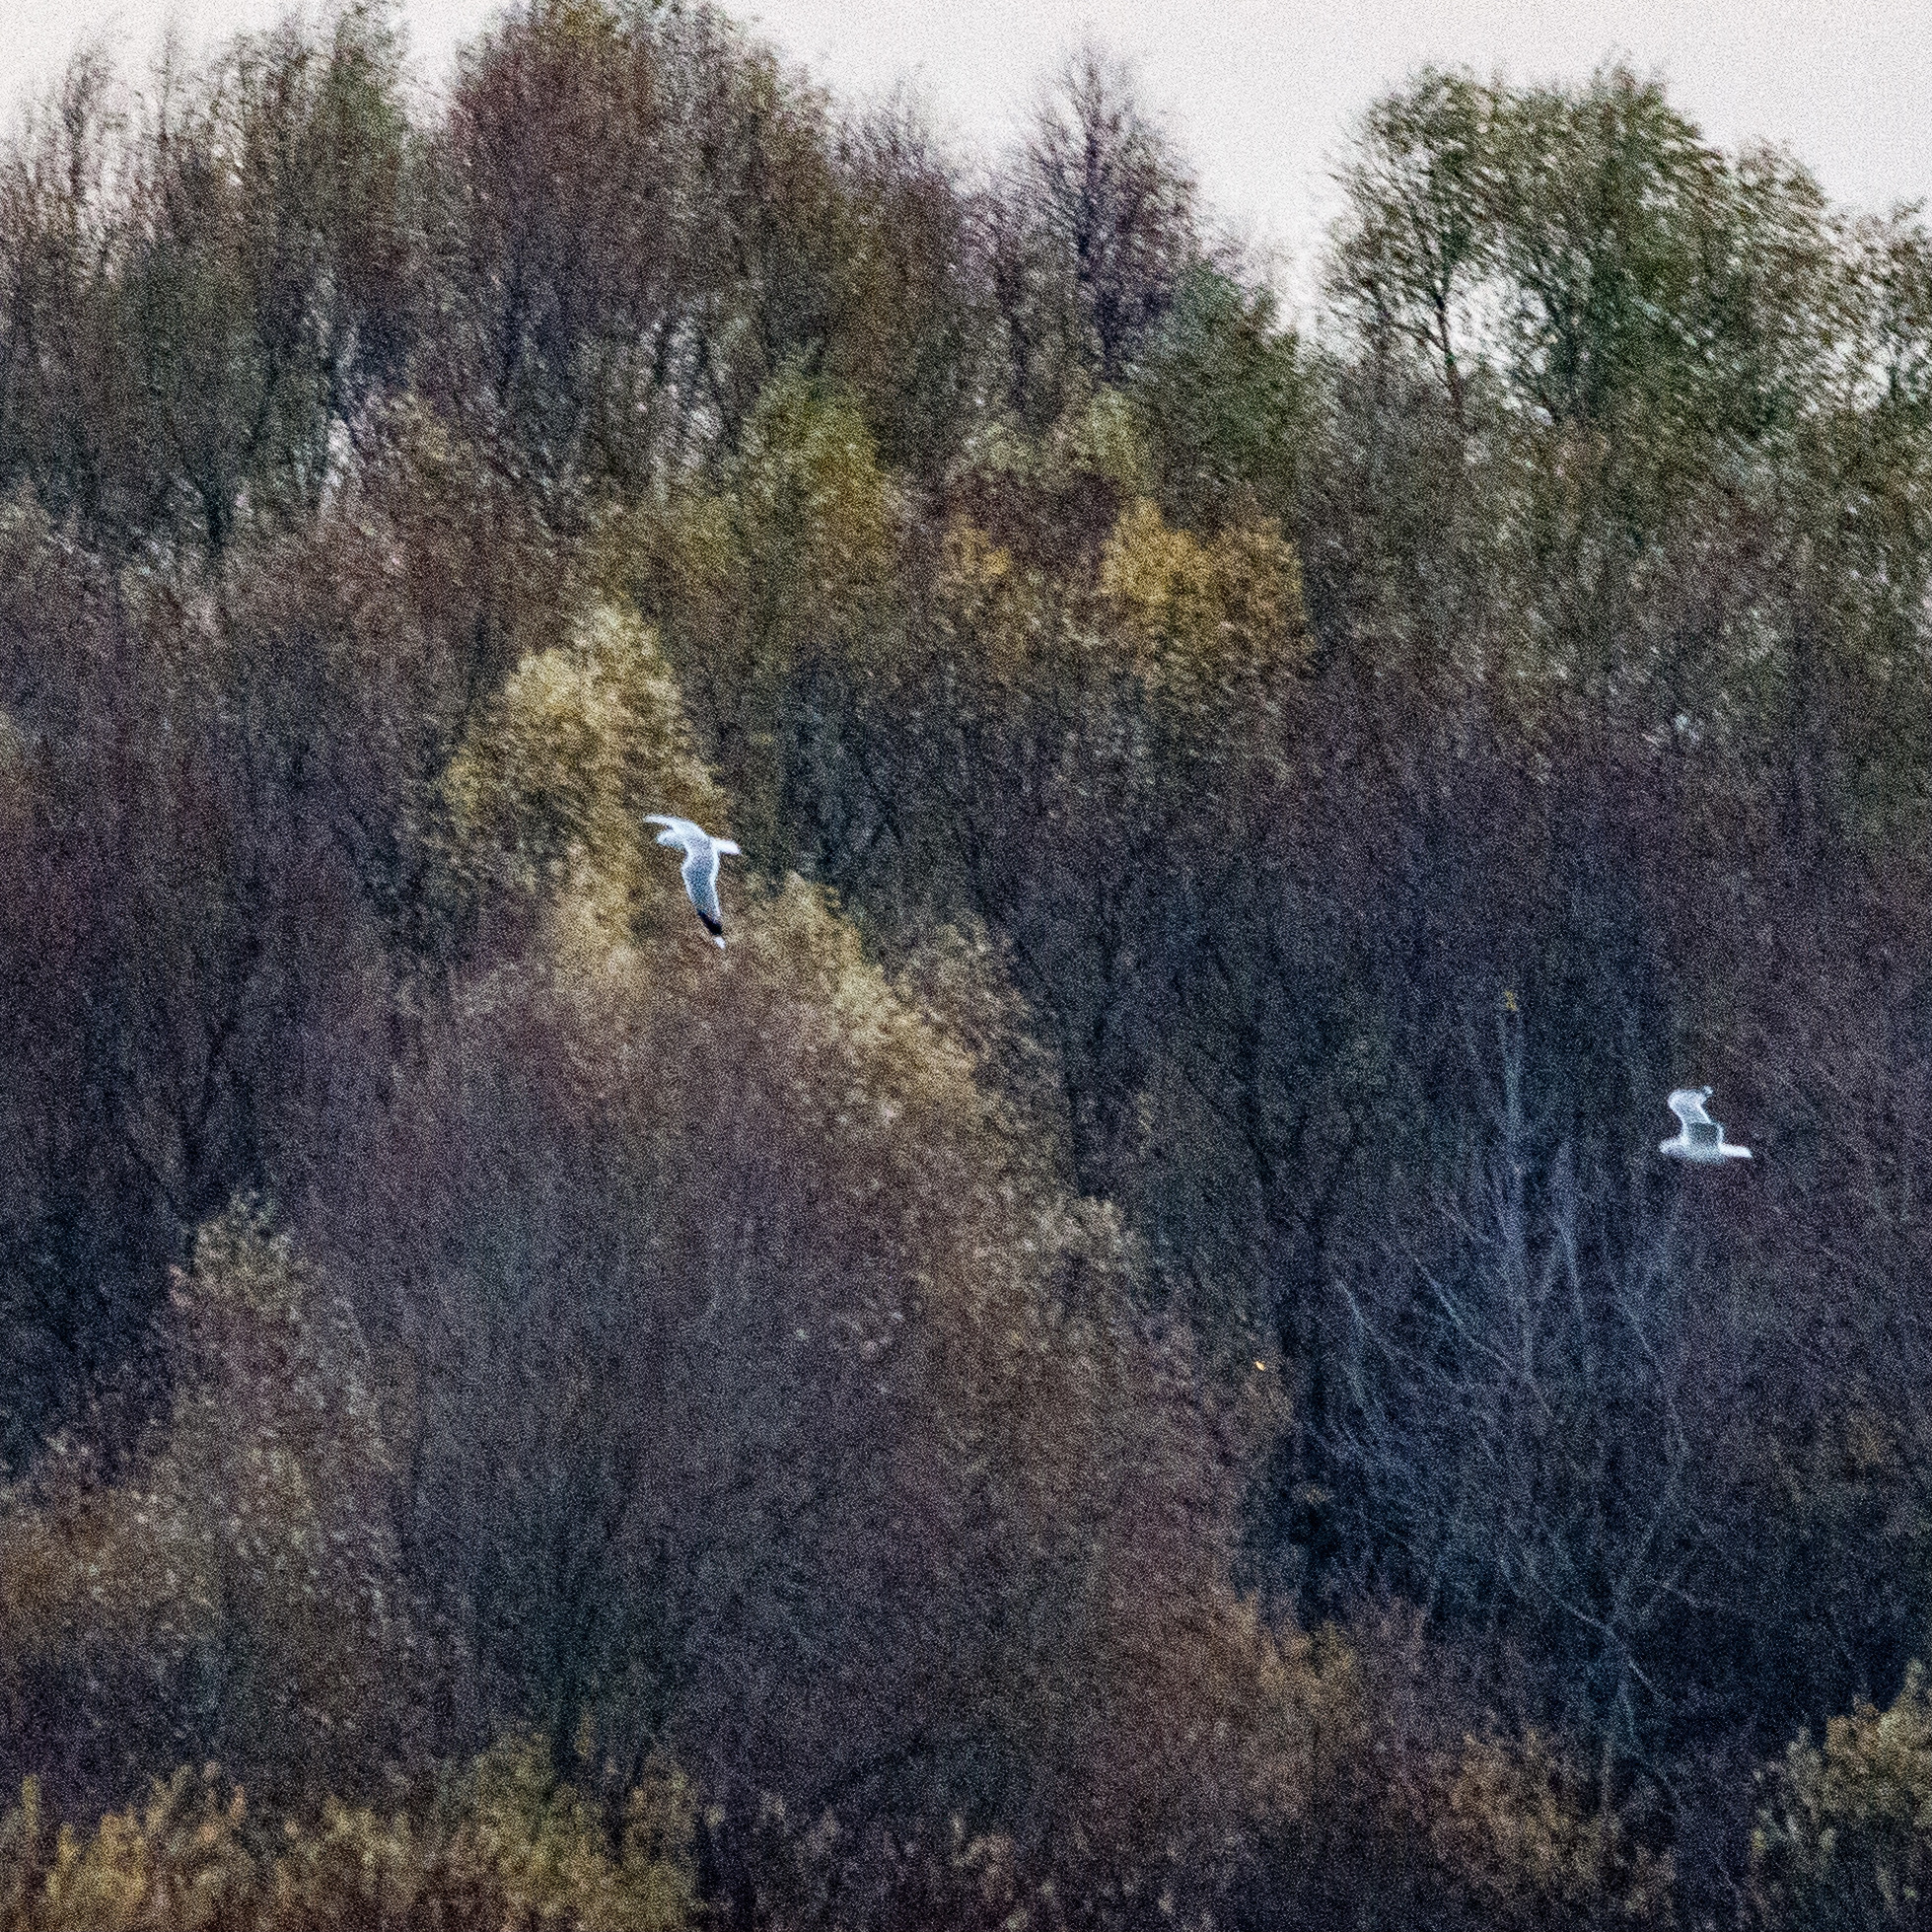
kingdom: Animalia
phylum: Chordata
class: Aves
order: Charadriiformes
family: Laridae
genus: Larus
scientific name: Larus canus
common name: Mew gull
